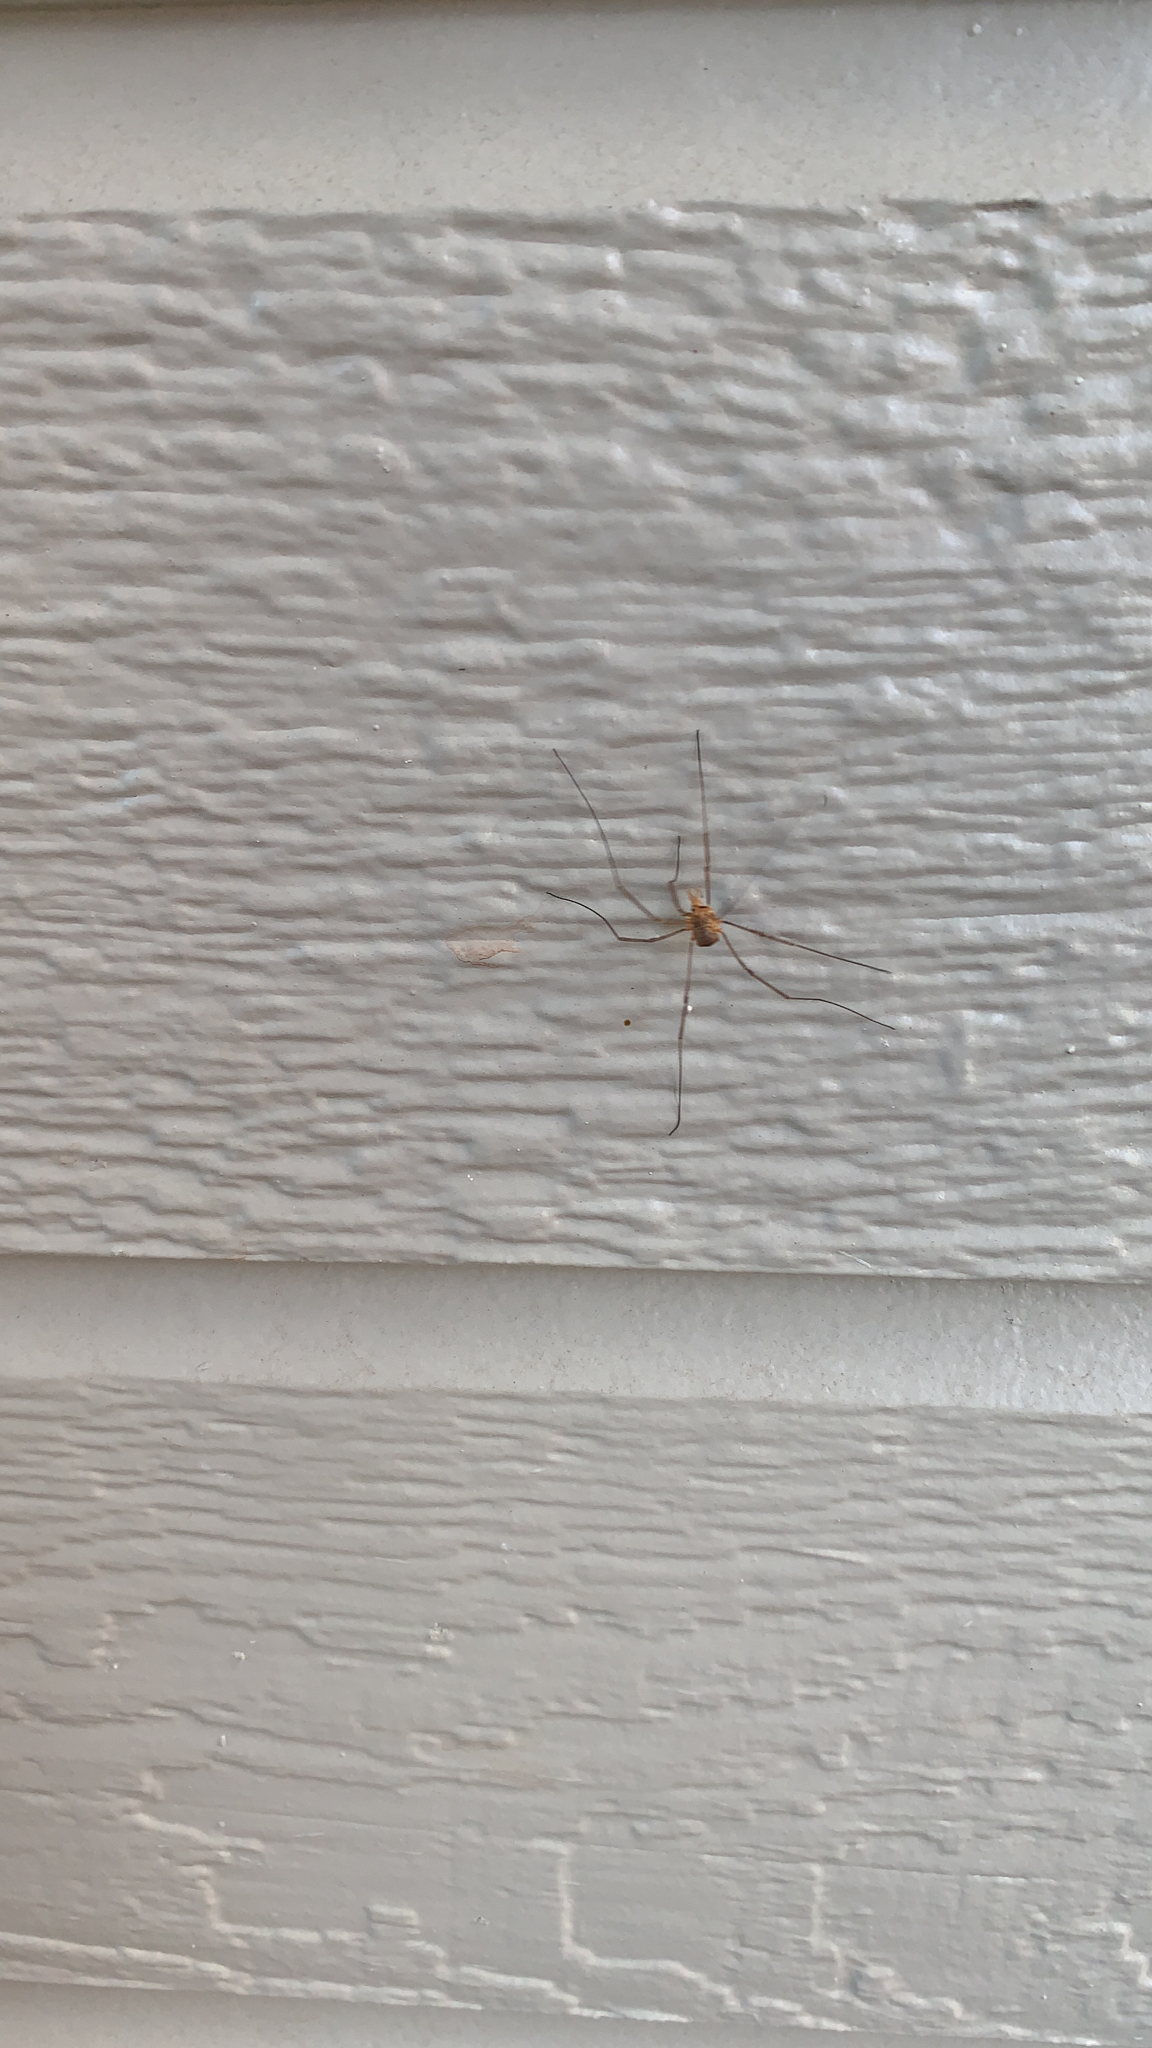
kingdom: Animalia
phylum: Arthropoda
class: Arachnida
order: Opiliones
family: Phalangiidae
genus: Phalangium
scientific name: Phalangium opilio
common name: Daddy longleg
